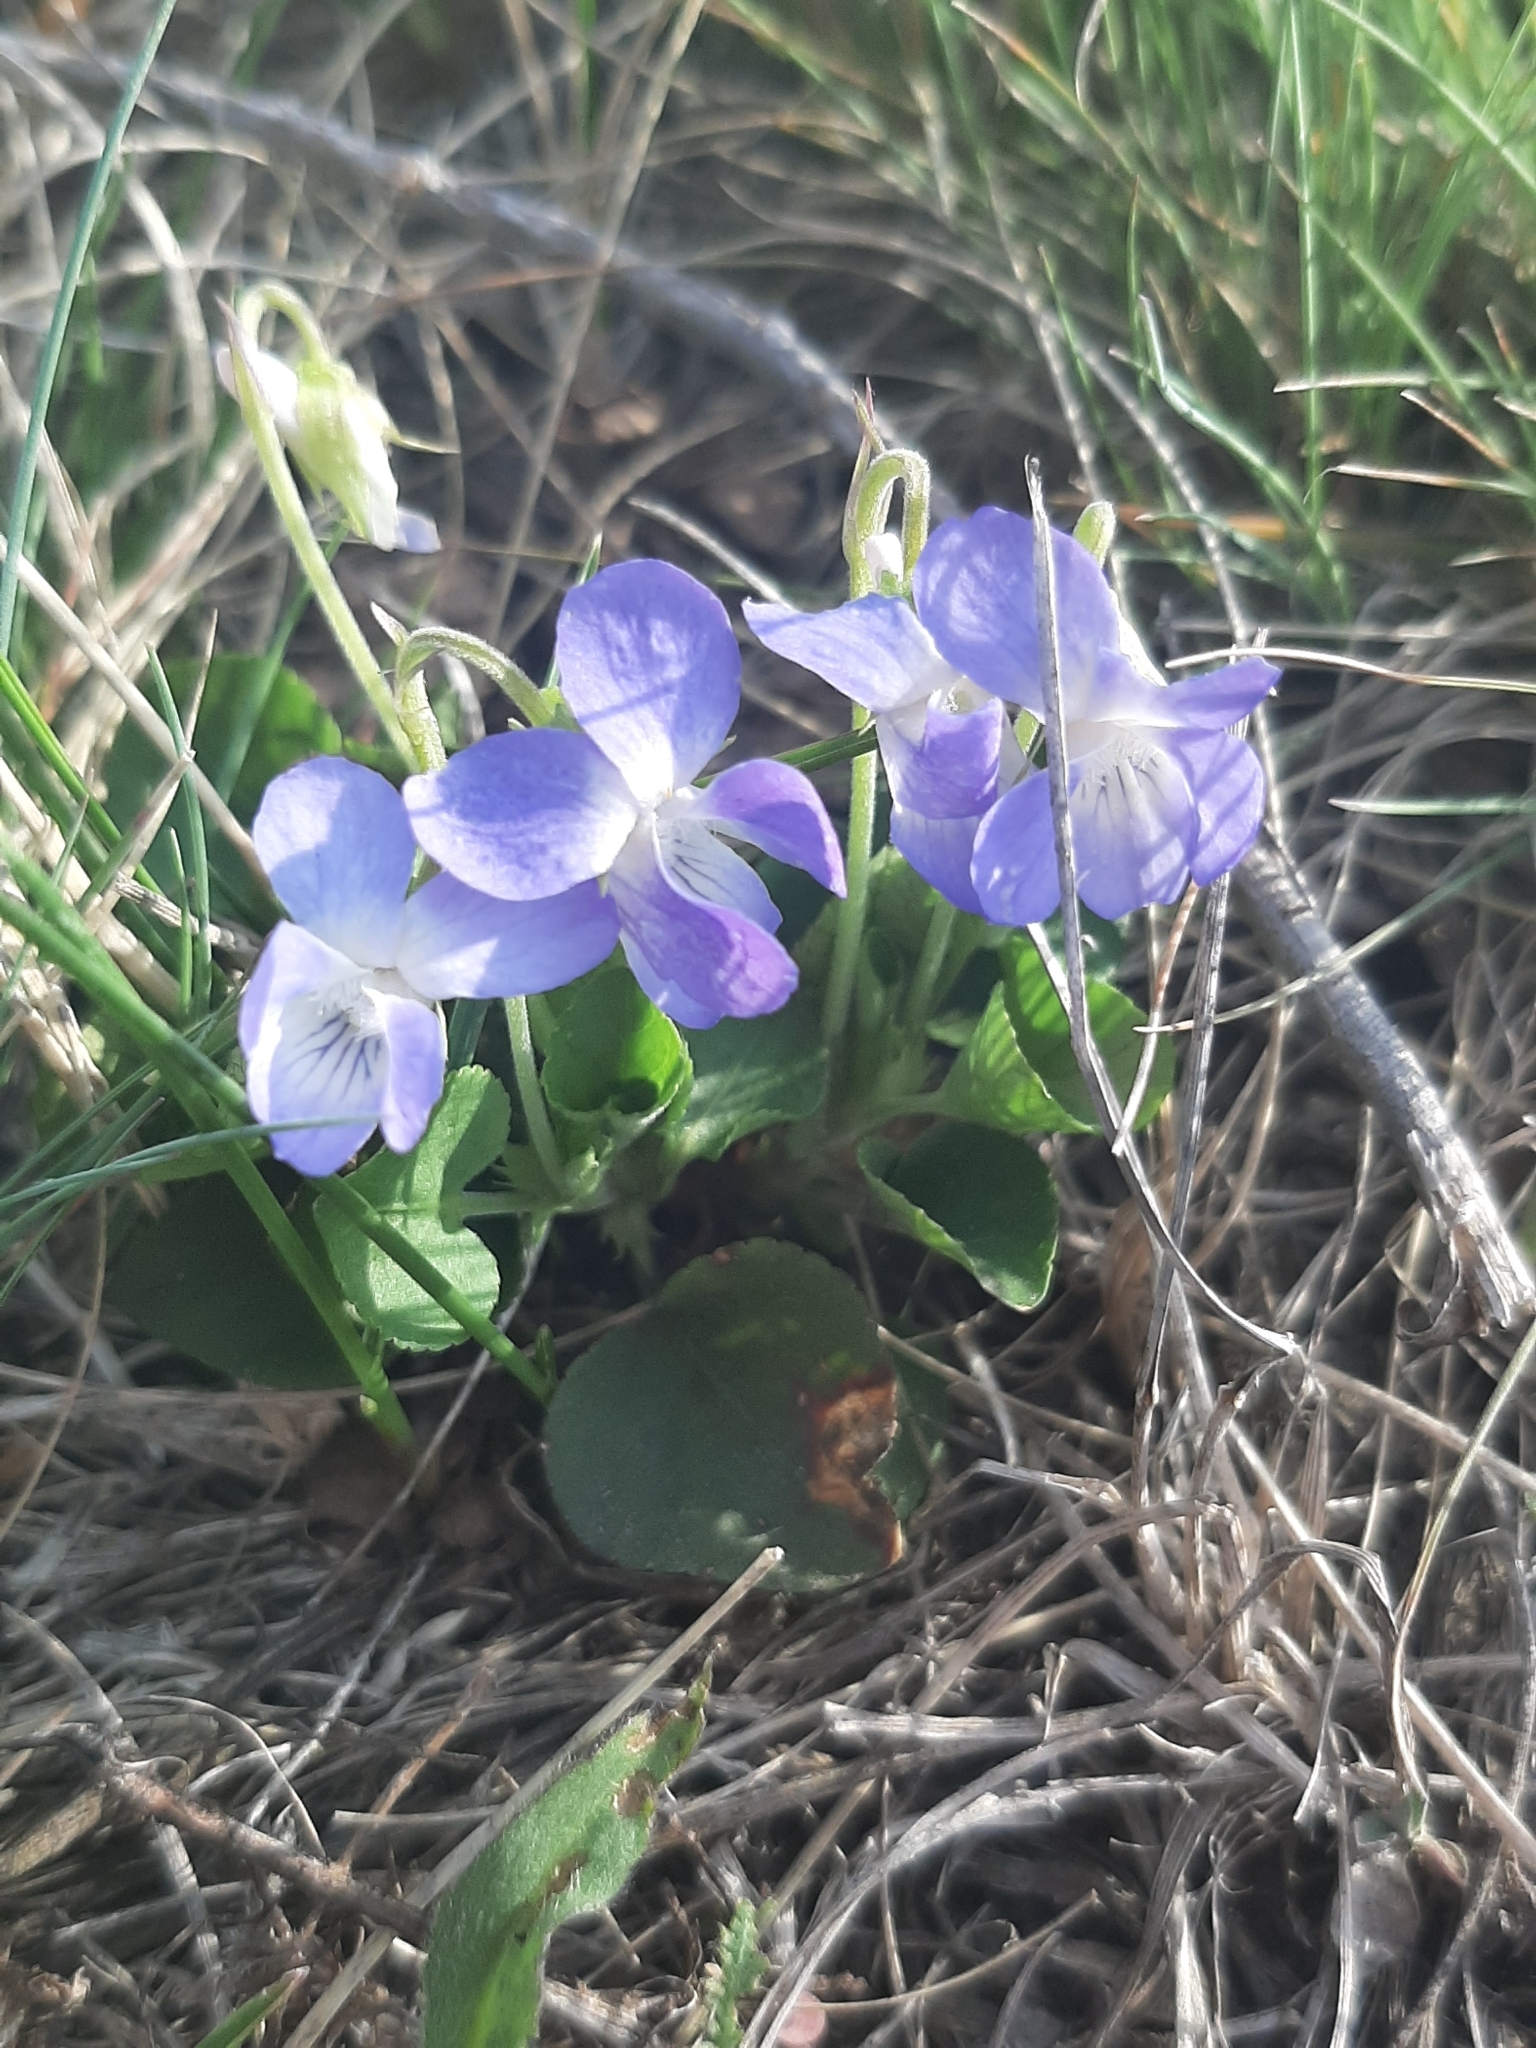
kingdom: Plantae
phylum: Tracheophyta
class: Magnoliopsida
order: Malpighiales
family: Violaceae
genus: Viola
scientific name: Viola rupestris
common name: Teesdale violet
